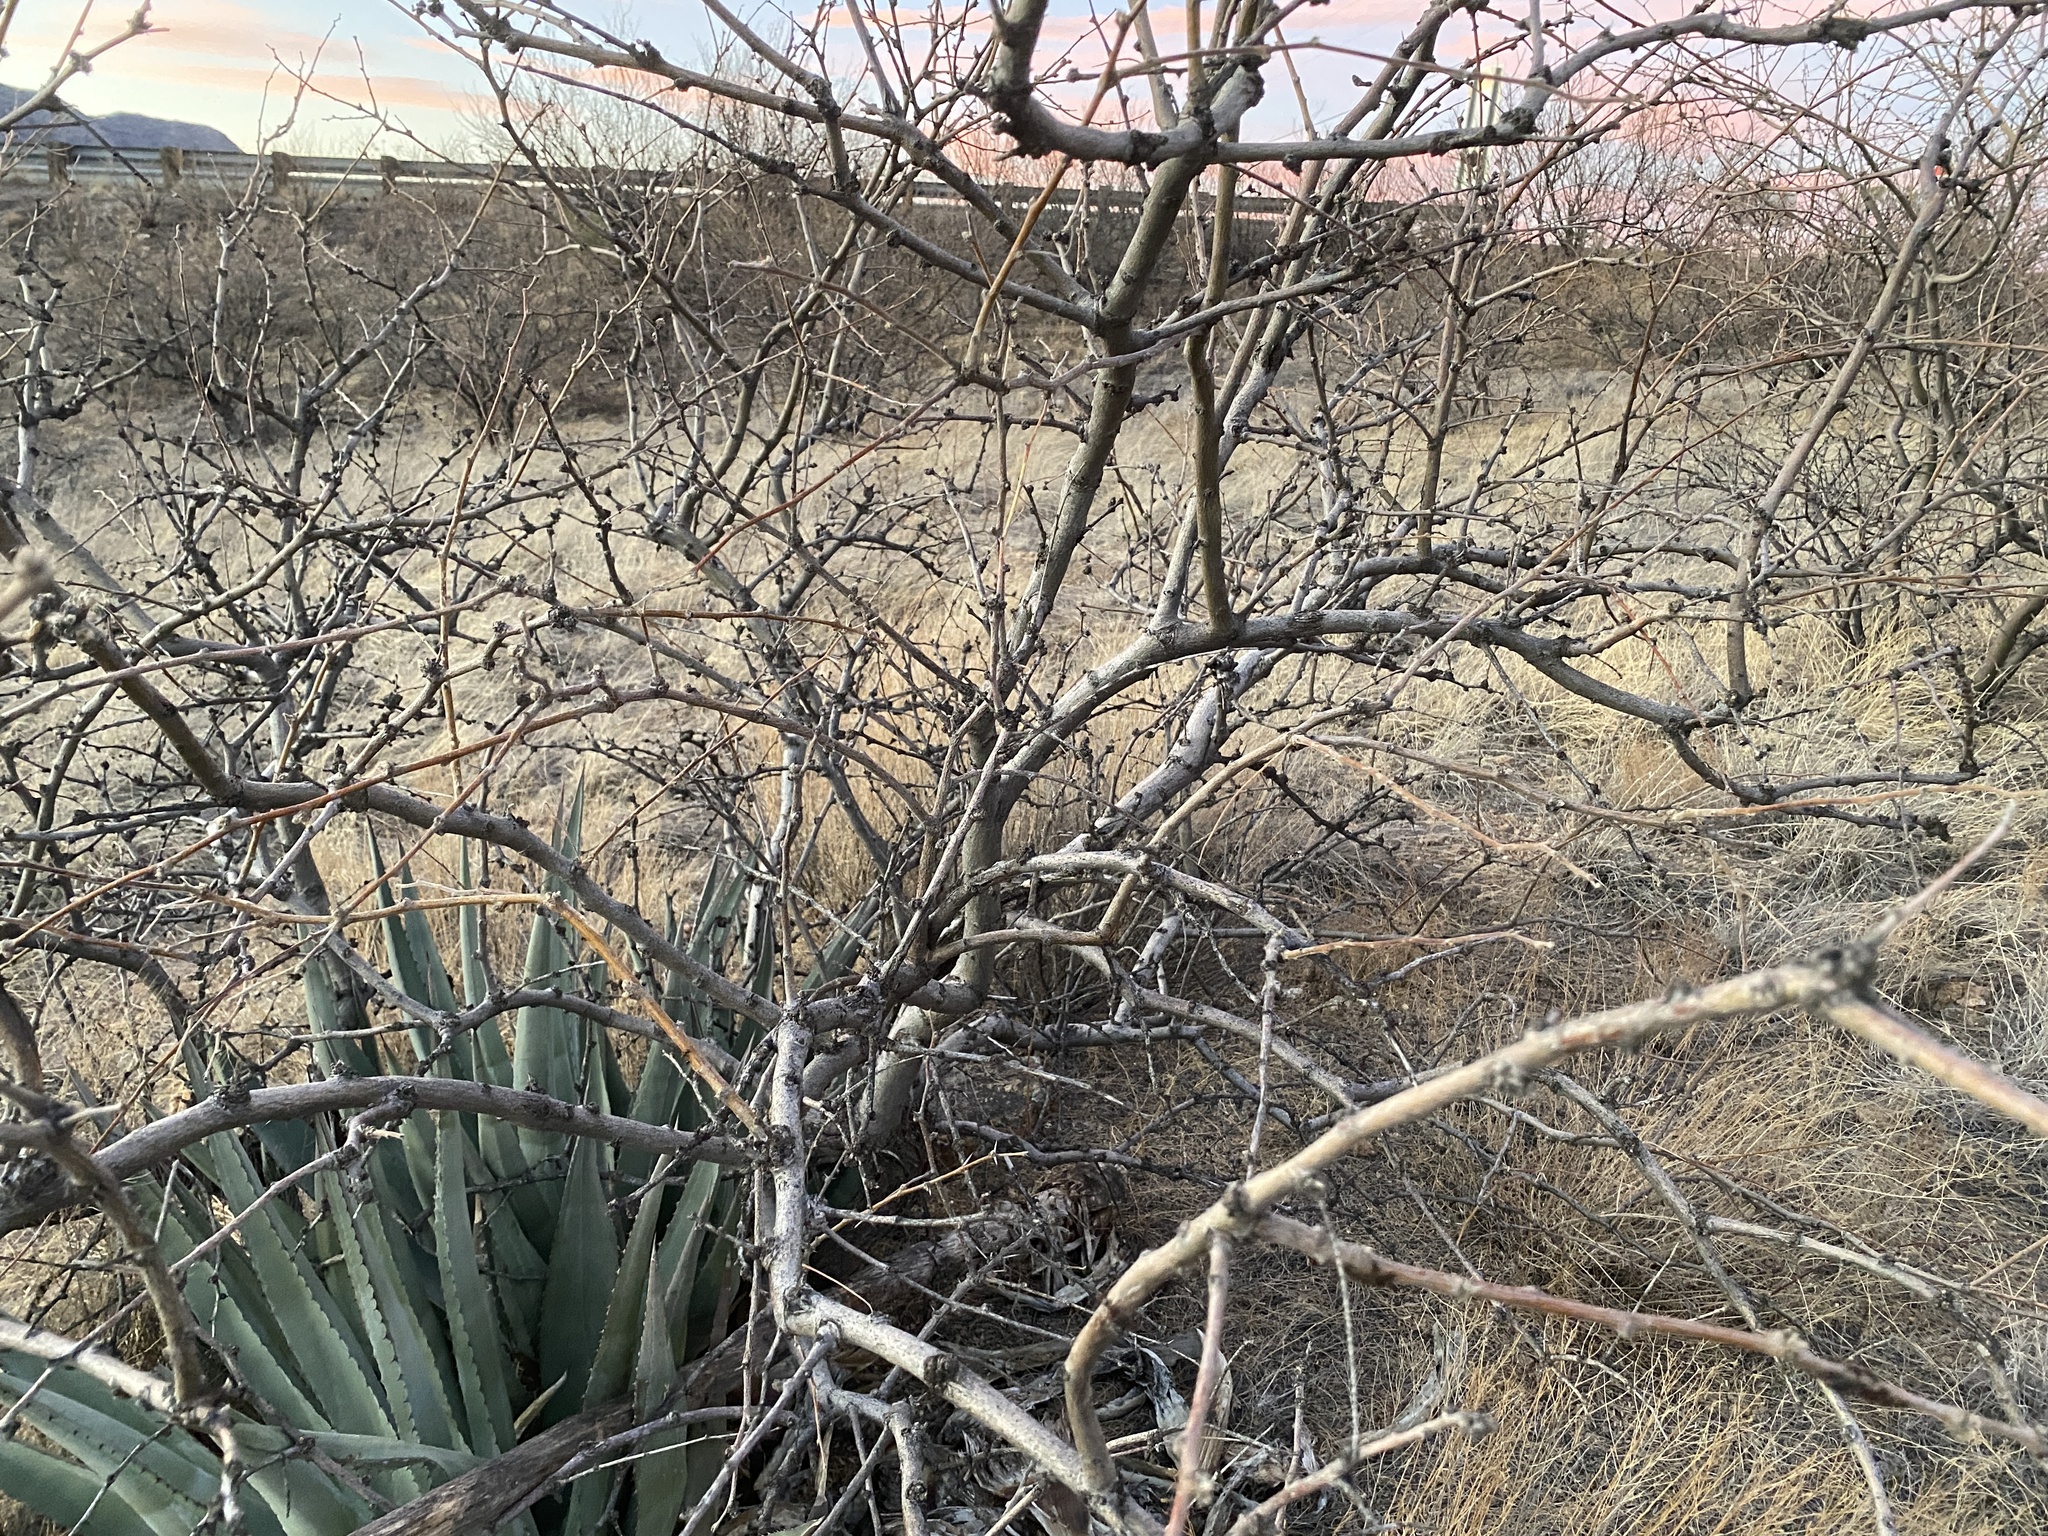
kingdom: Plantae
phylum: Tracheophyta
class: Magnoliopsida
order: Fabales
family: Fabaceae
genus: Prosopis
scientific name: Prosopis velutina
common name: Velvet mesquite
